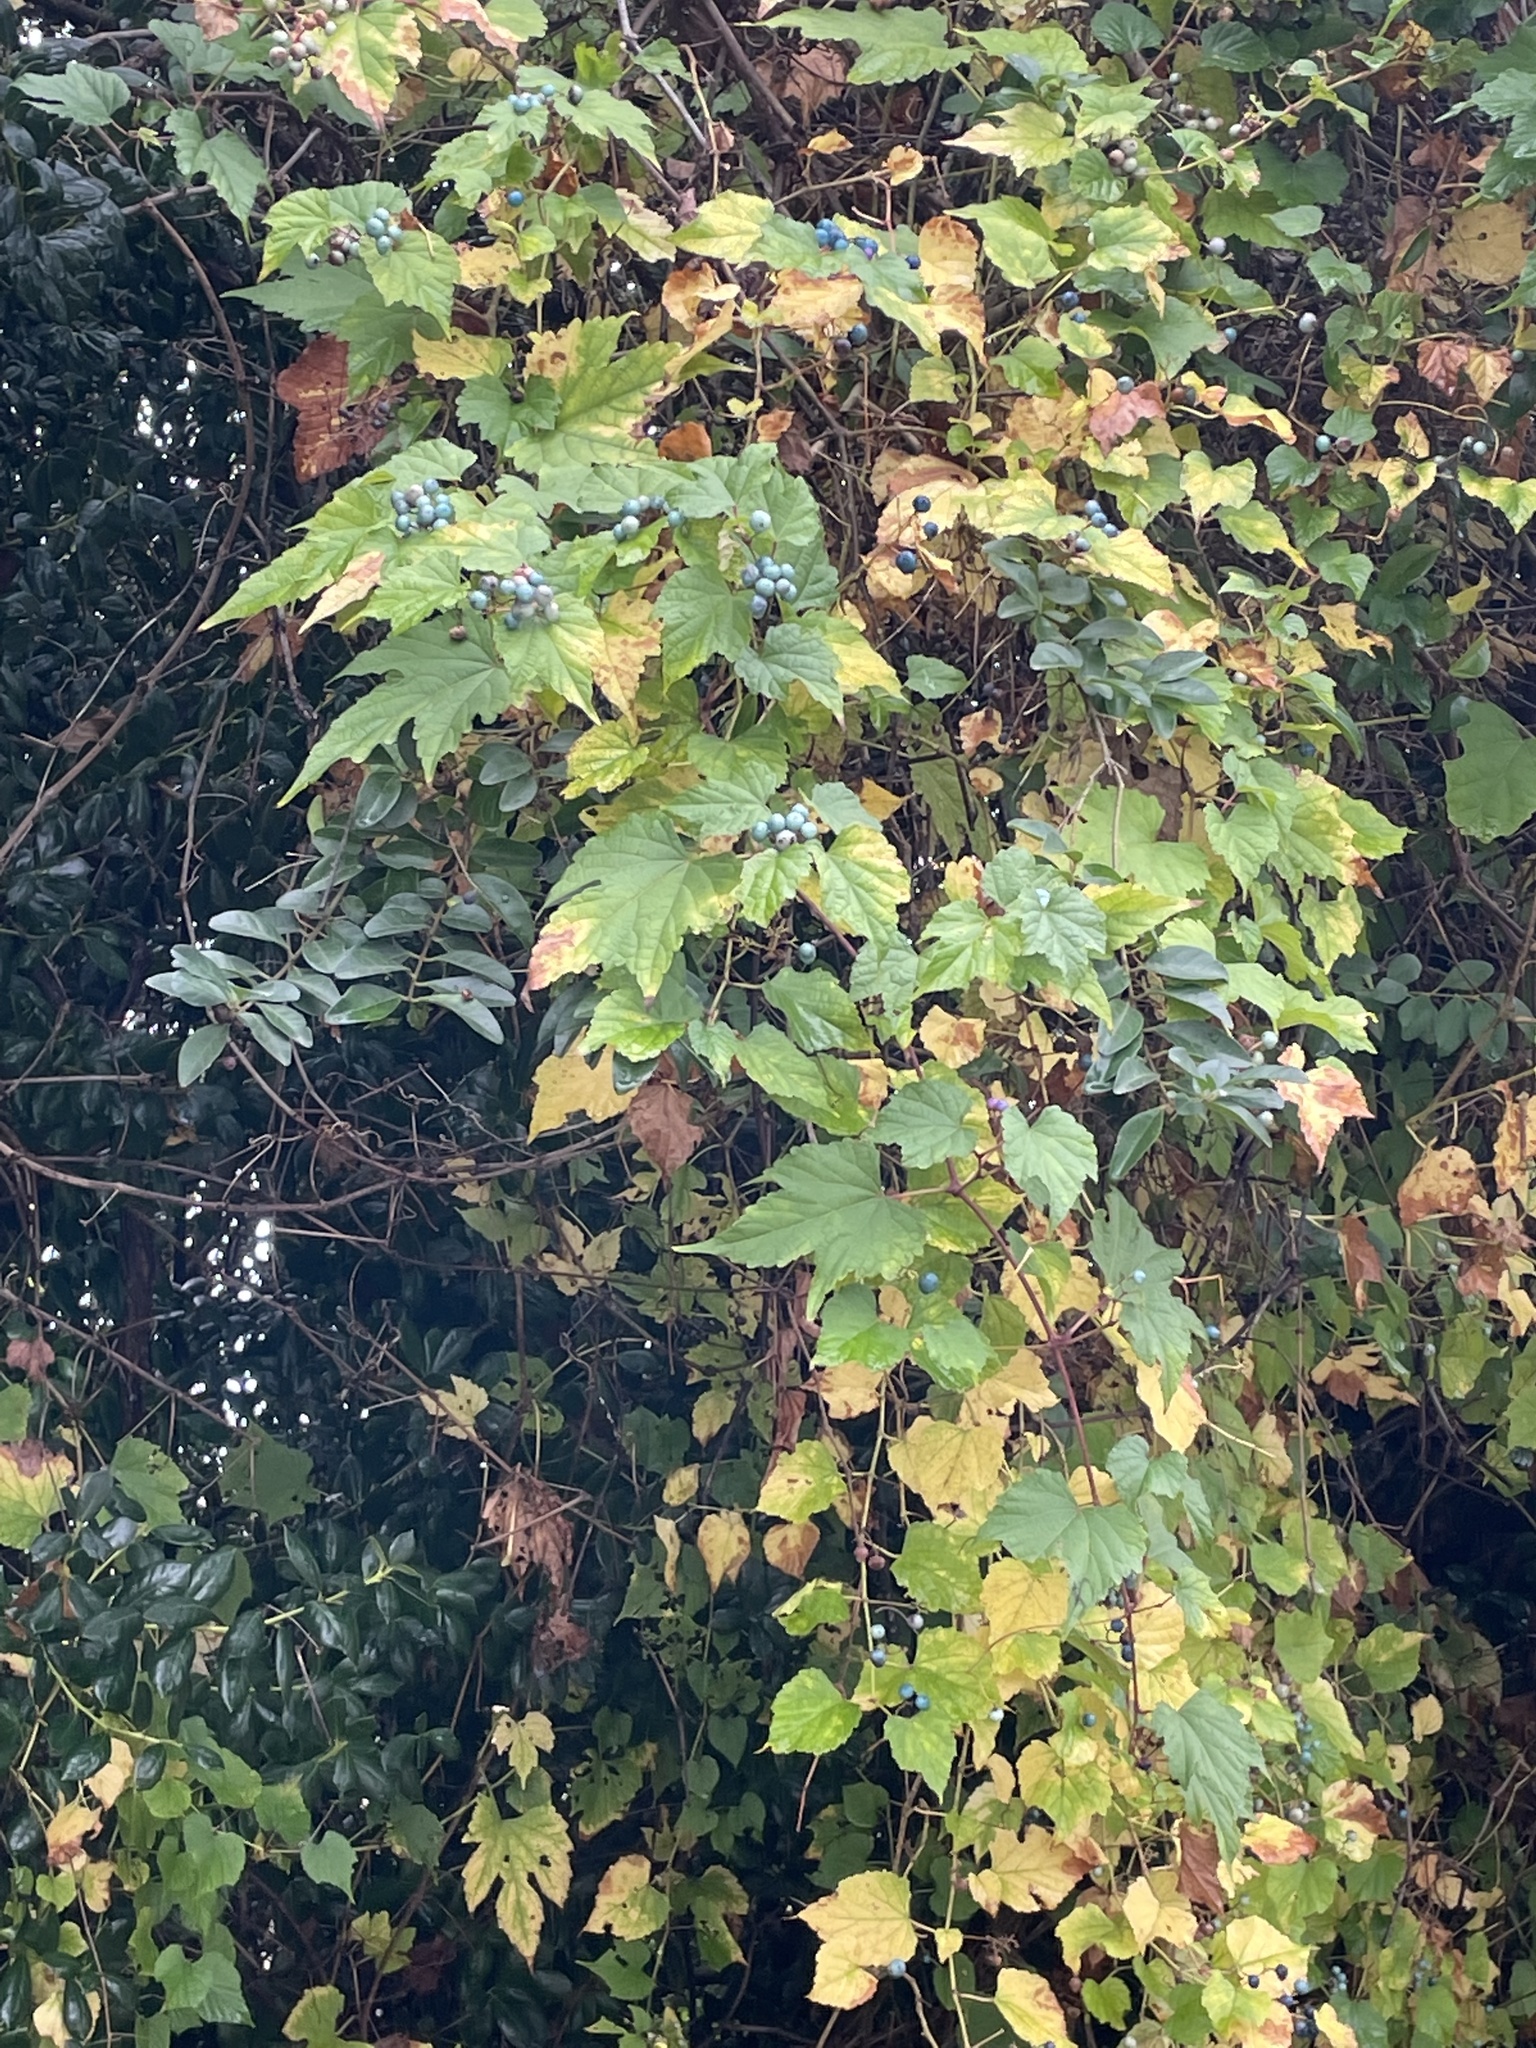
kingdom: Plantae
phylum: Tracheophyta
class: Magnoliopsida
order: Vitales
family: Vitaceae
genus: Ampelopsis
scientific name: Ampelopsis glandulosa
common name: Amur peppervine
